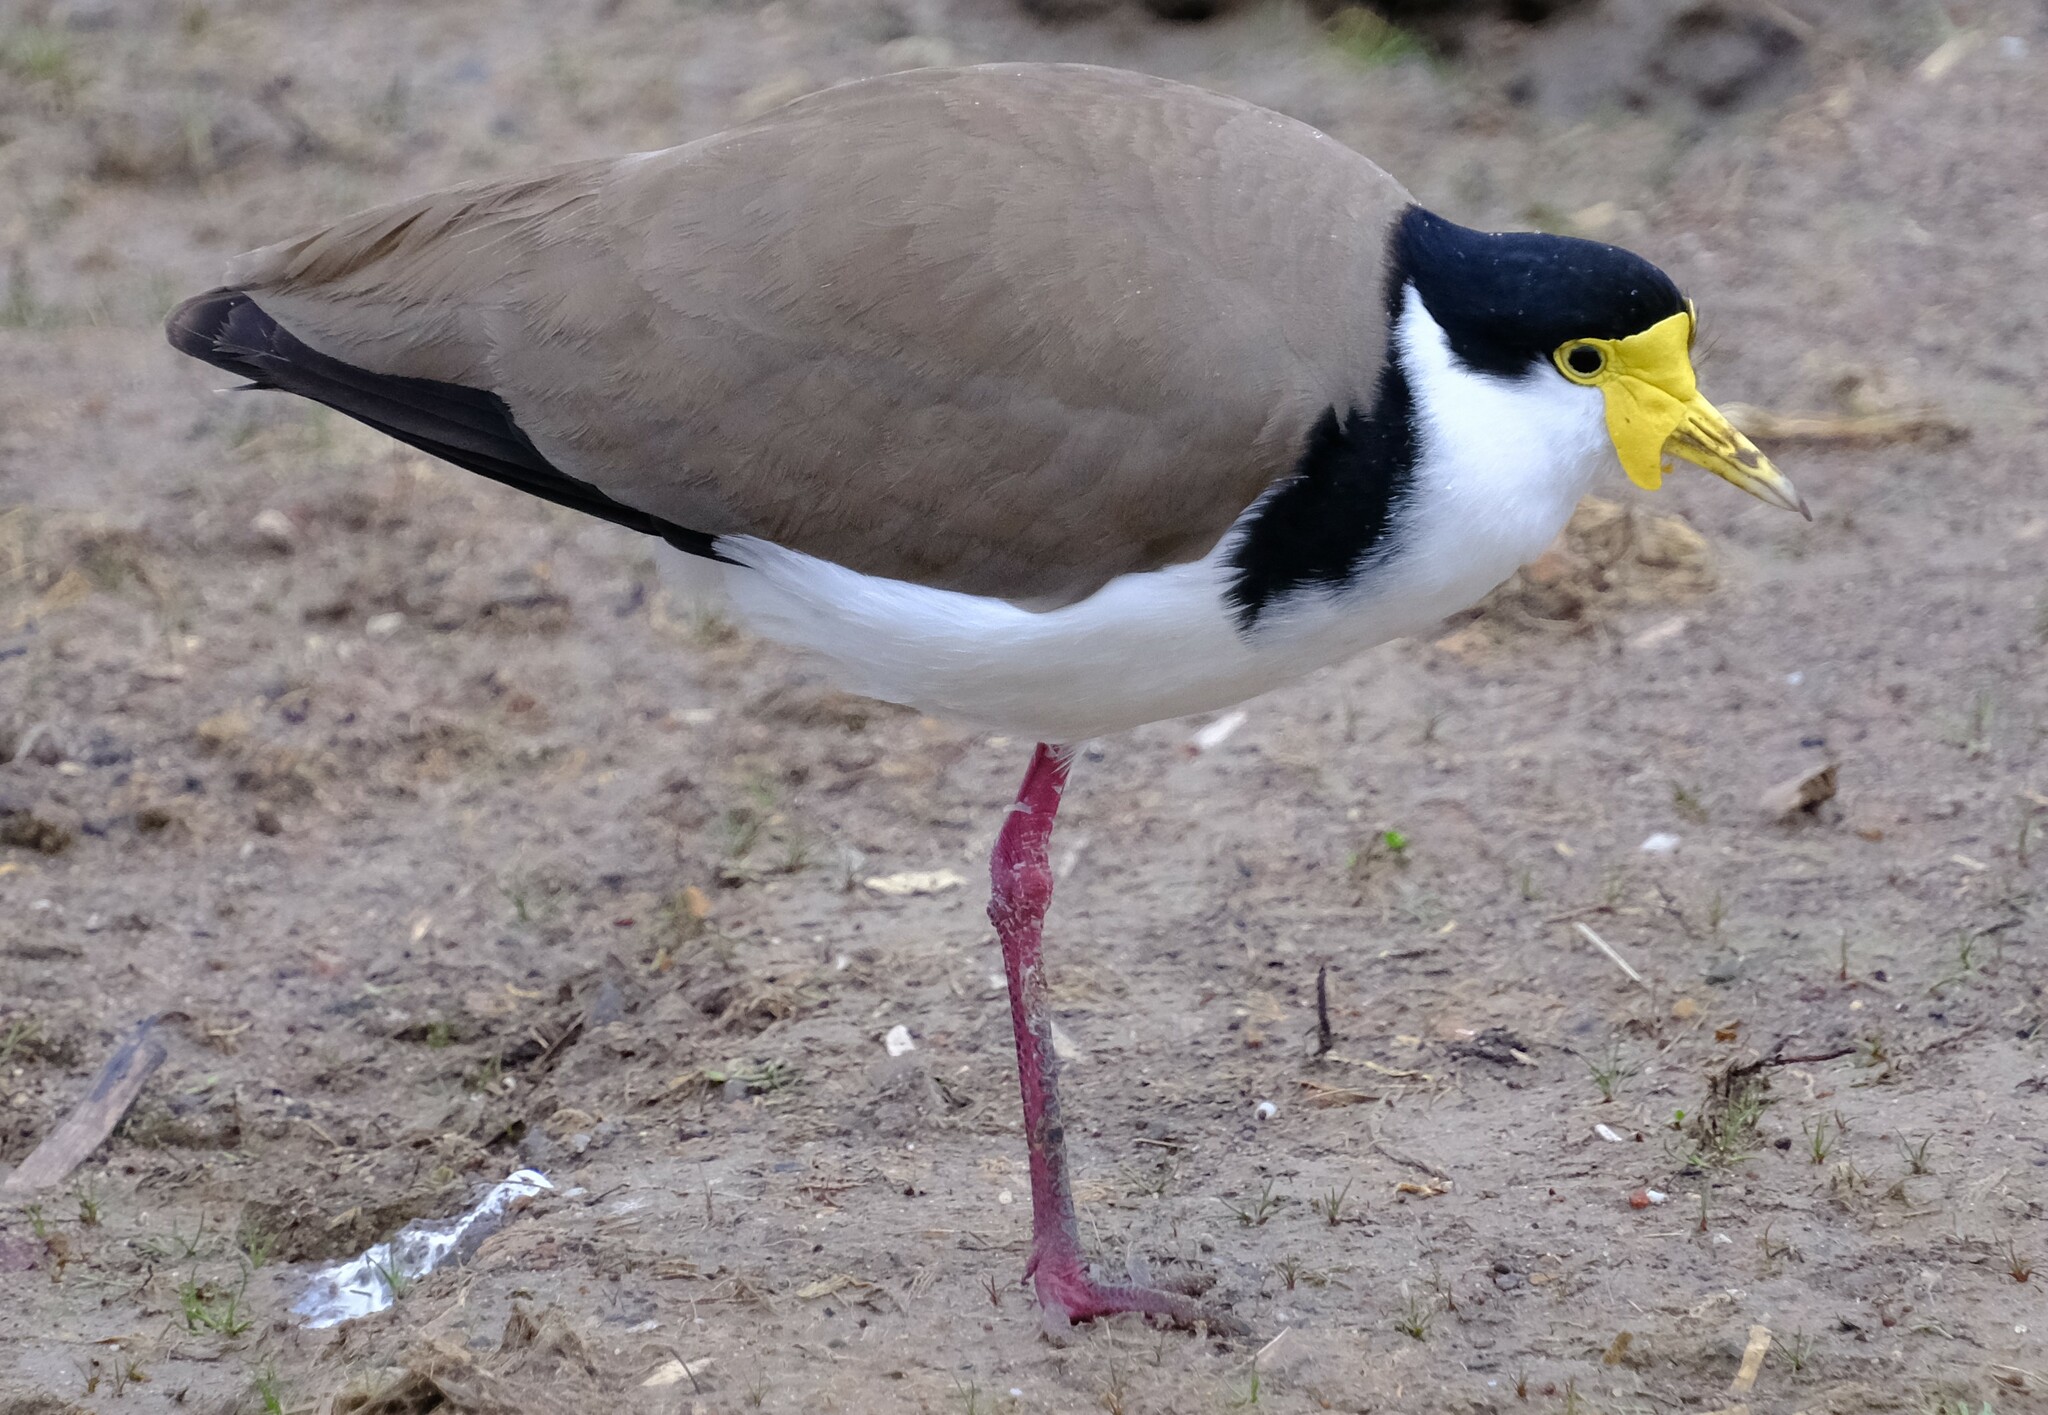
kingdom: Animalia
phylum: Chordata
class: Aves
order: Charadriiformes
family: Charadriidae
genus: Vanellus
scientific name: Vanellus miles
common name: Masked lapwing
